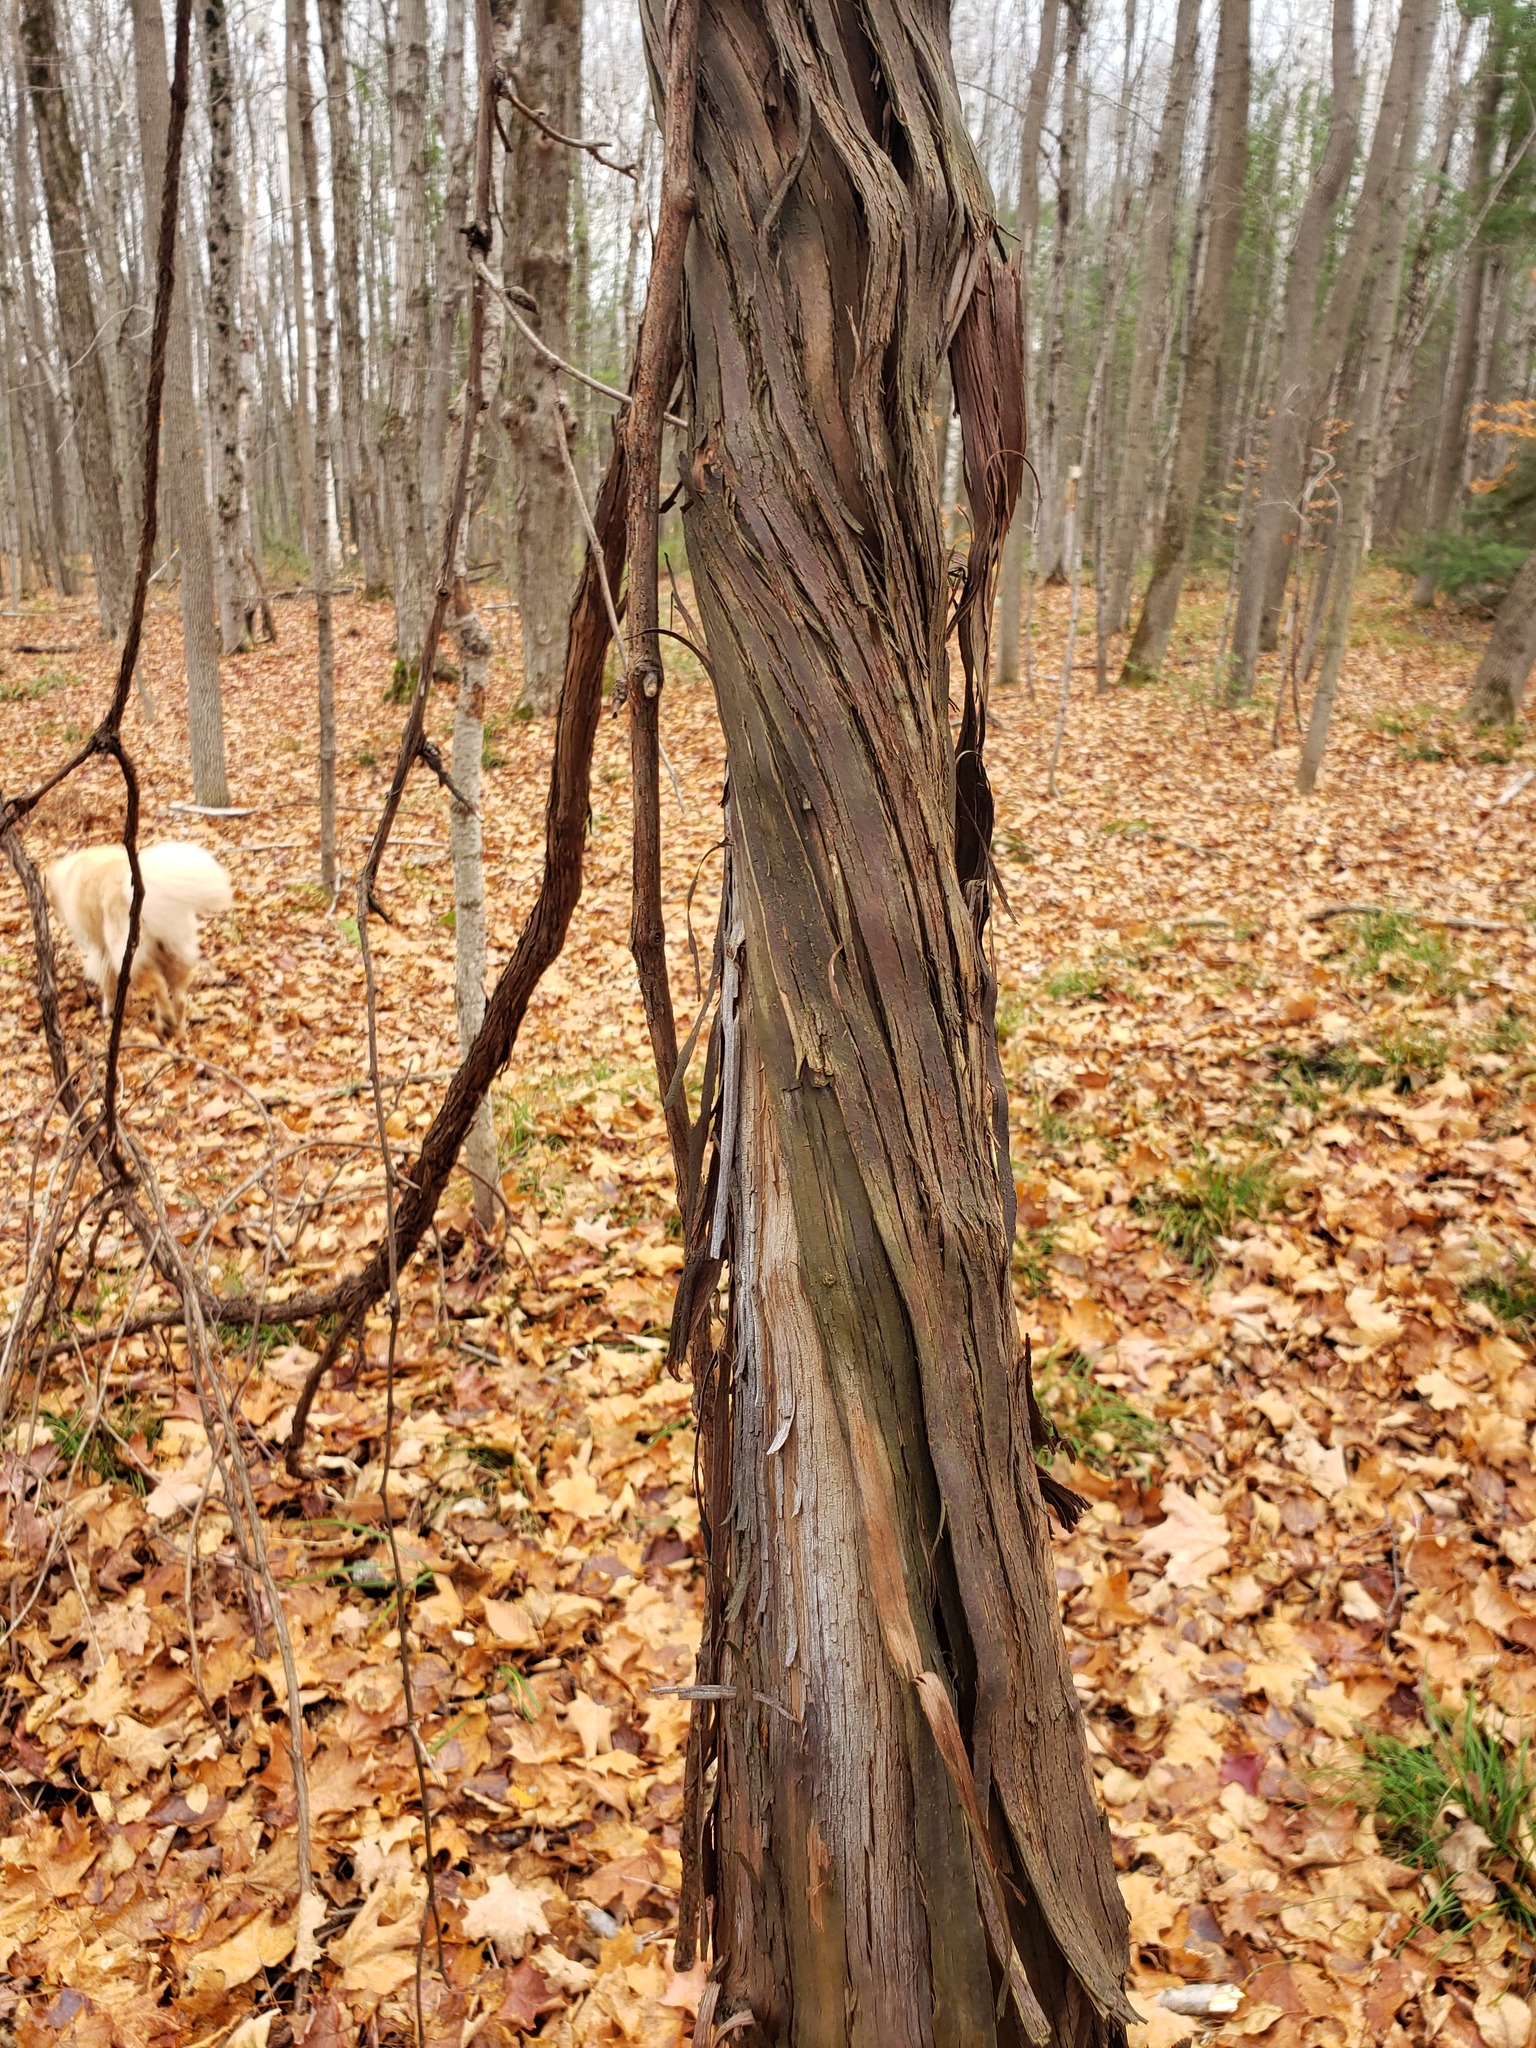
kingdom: Plantae
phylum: Tracheophyta
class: Magnoliopsida
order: Vitales
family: Vitaceae
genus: Vitis
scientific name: Vitis riparia
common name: Frost grape
